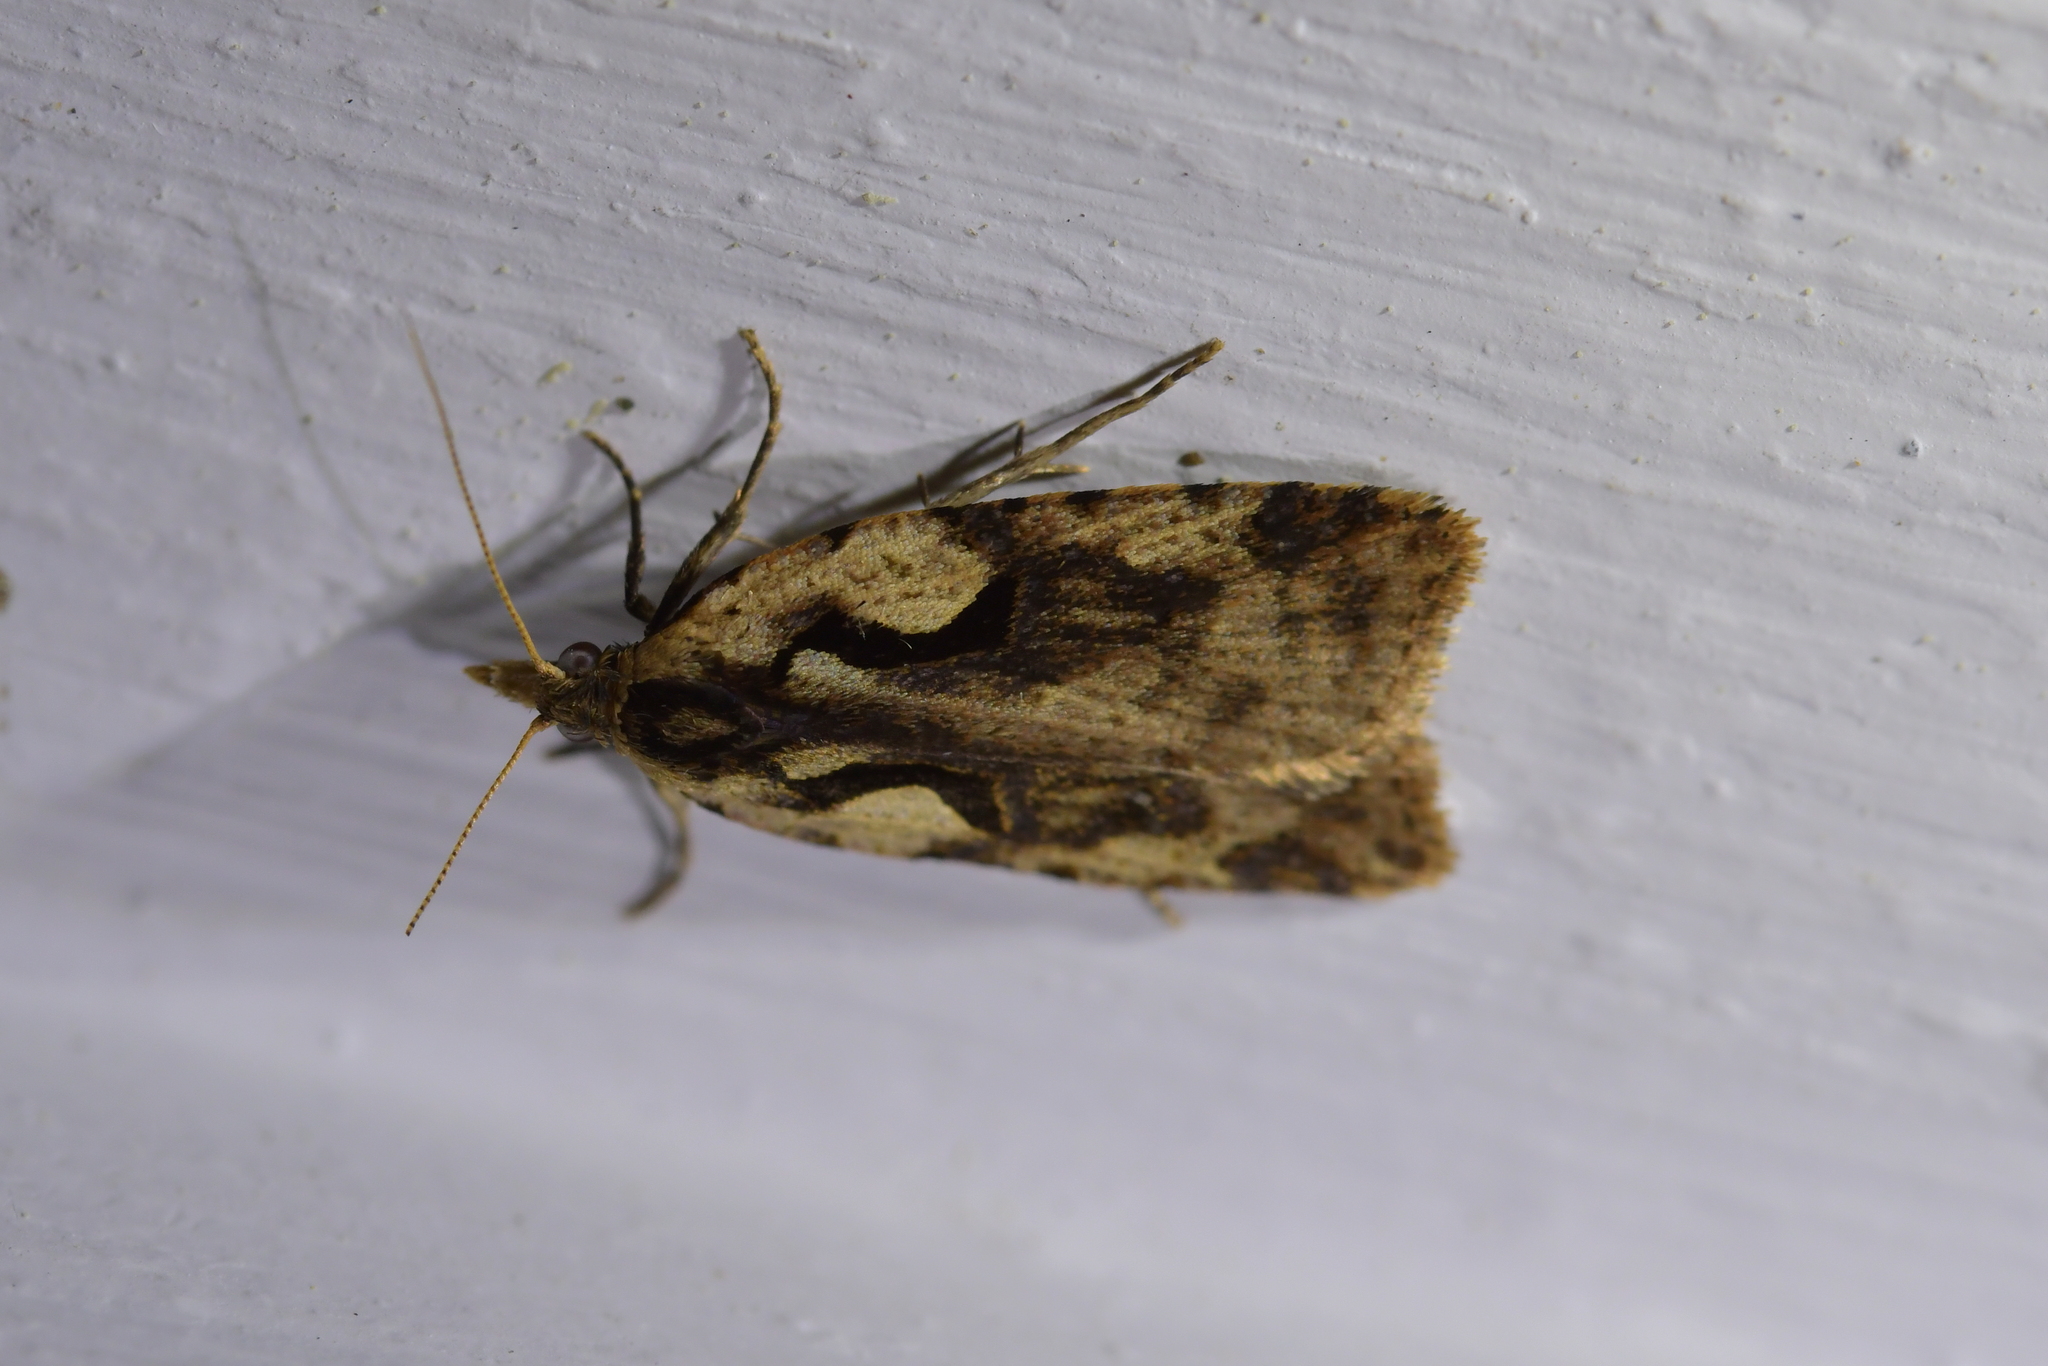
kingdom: Animalia
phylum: Arthropoda
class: Insecta
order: Lepidoptera
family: Tortricidae
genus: Cnephasia
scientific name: Cnephasia jactatana
